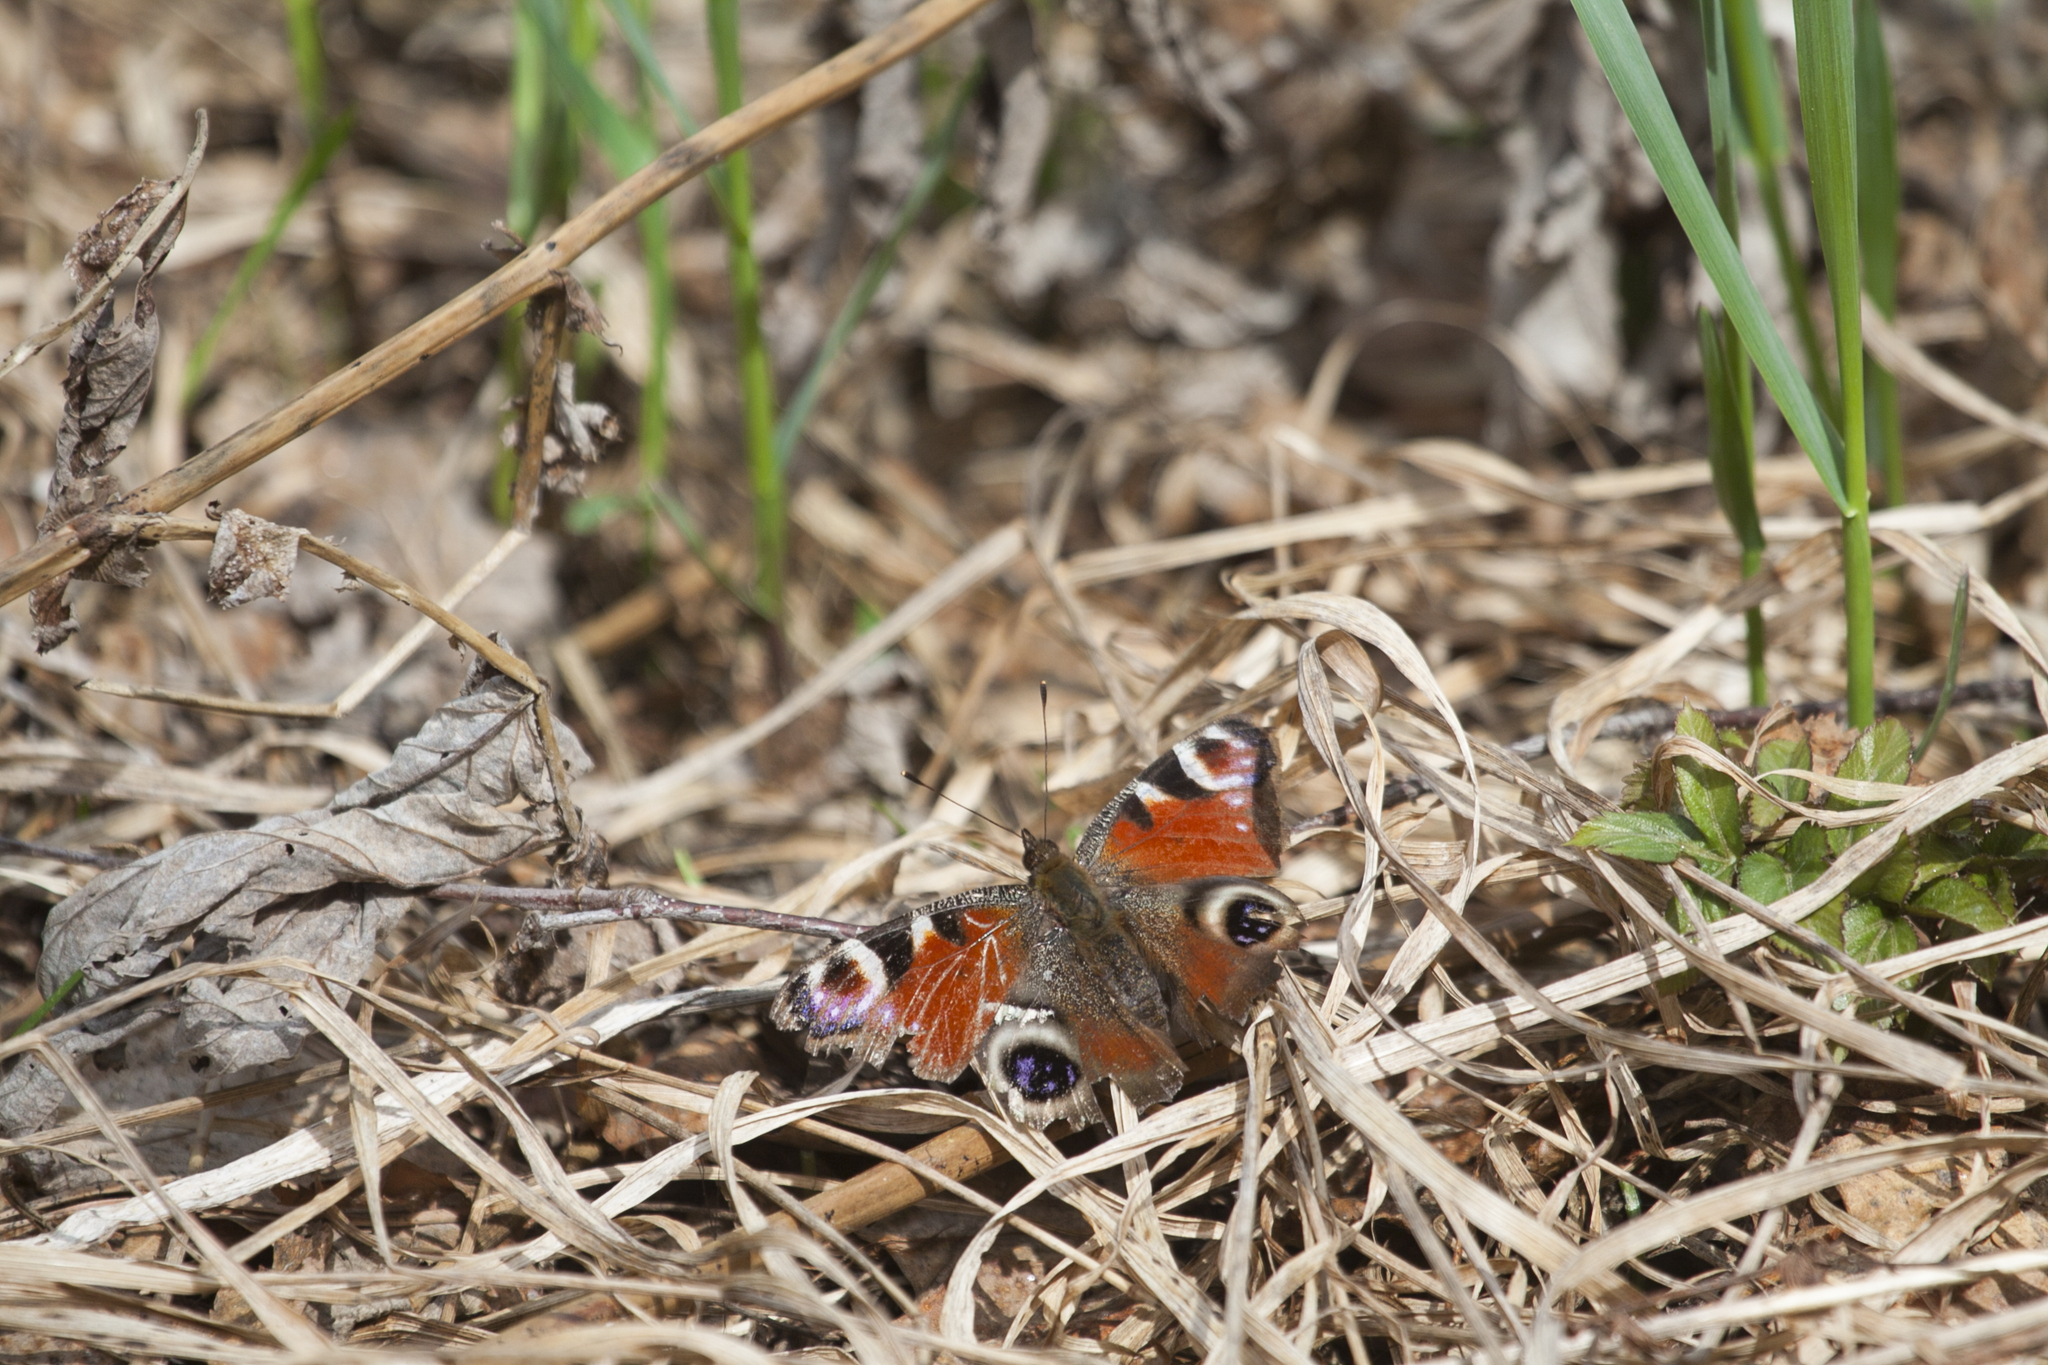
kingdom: Animalia
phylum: Arthropoda
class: Insecta
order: Lepidoptera
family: Nymphalidae
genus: Aglais
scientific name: Aglais io
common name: Peacock
